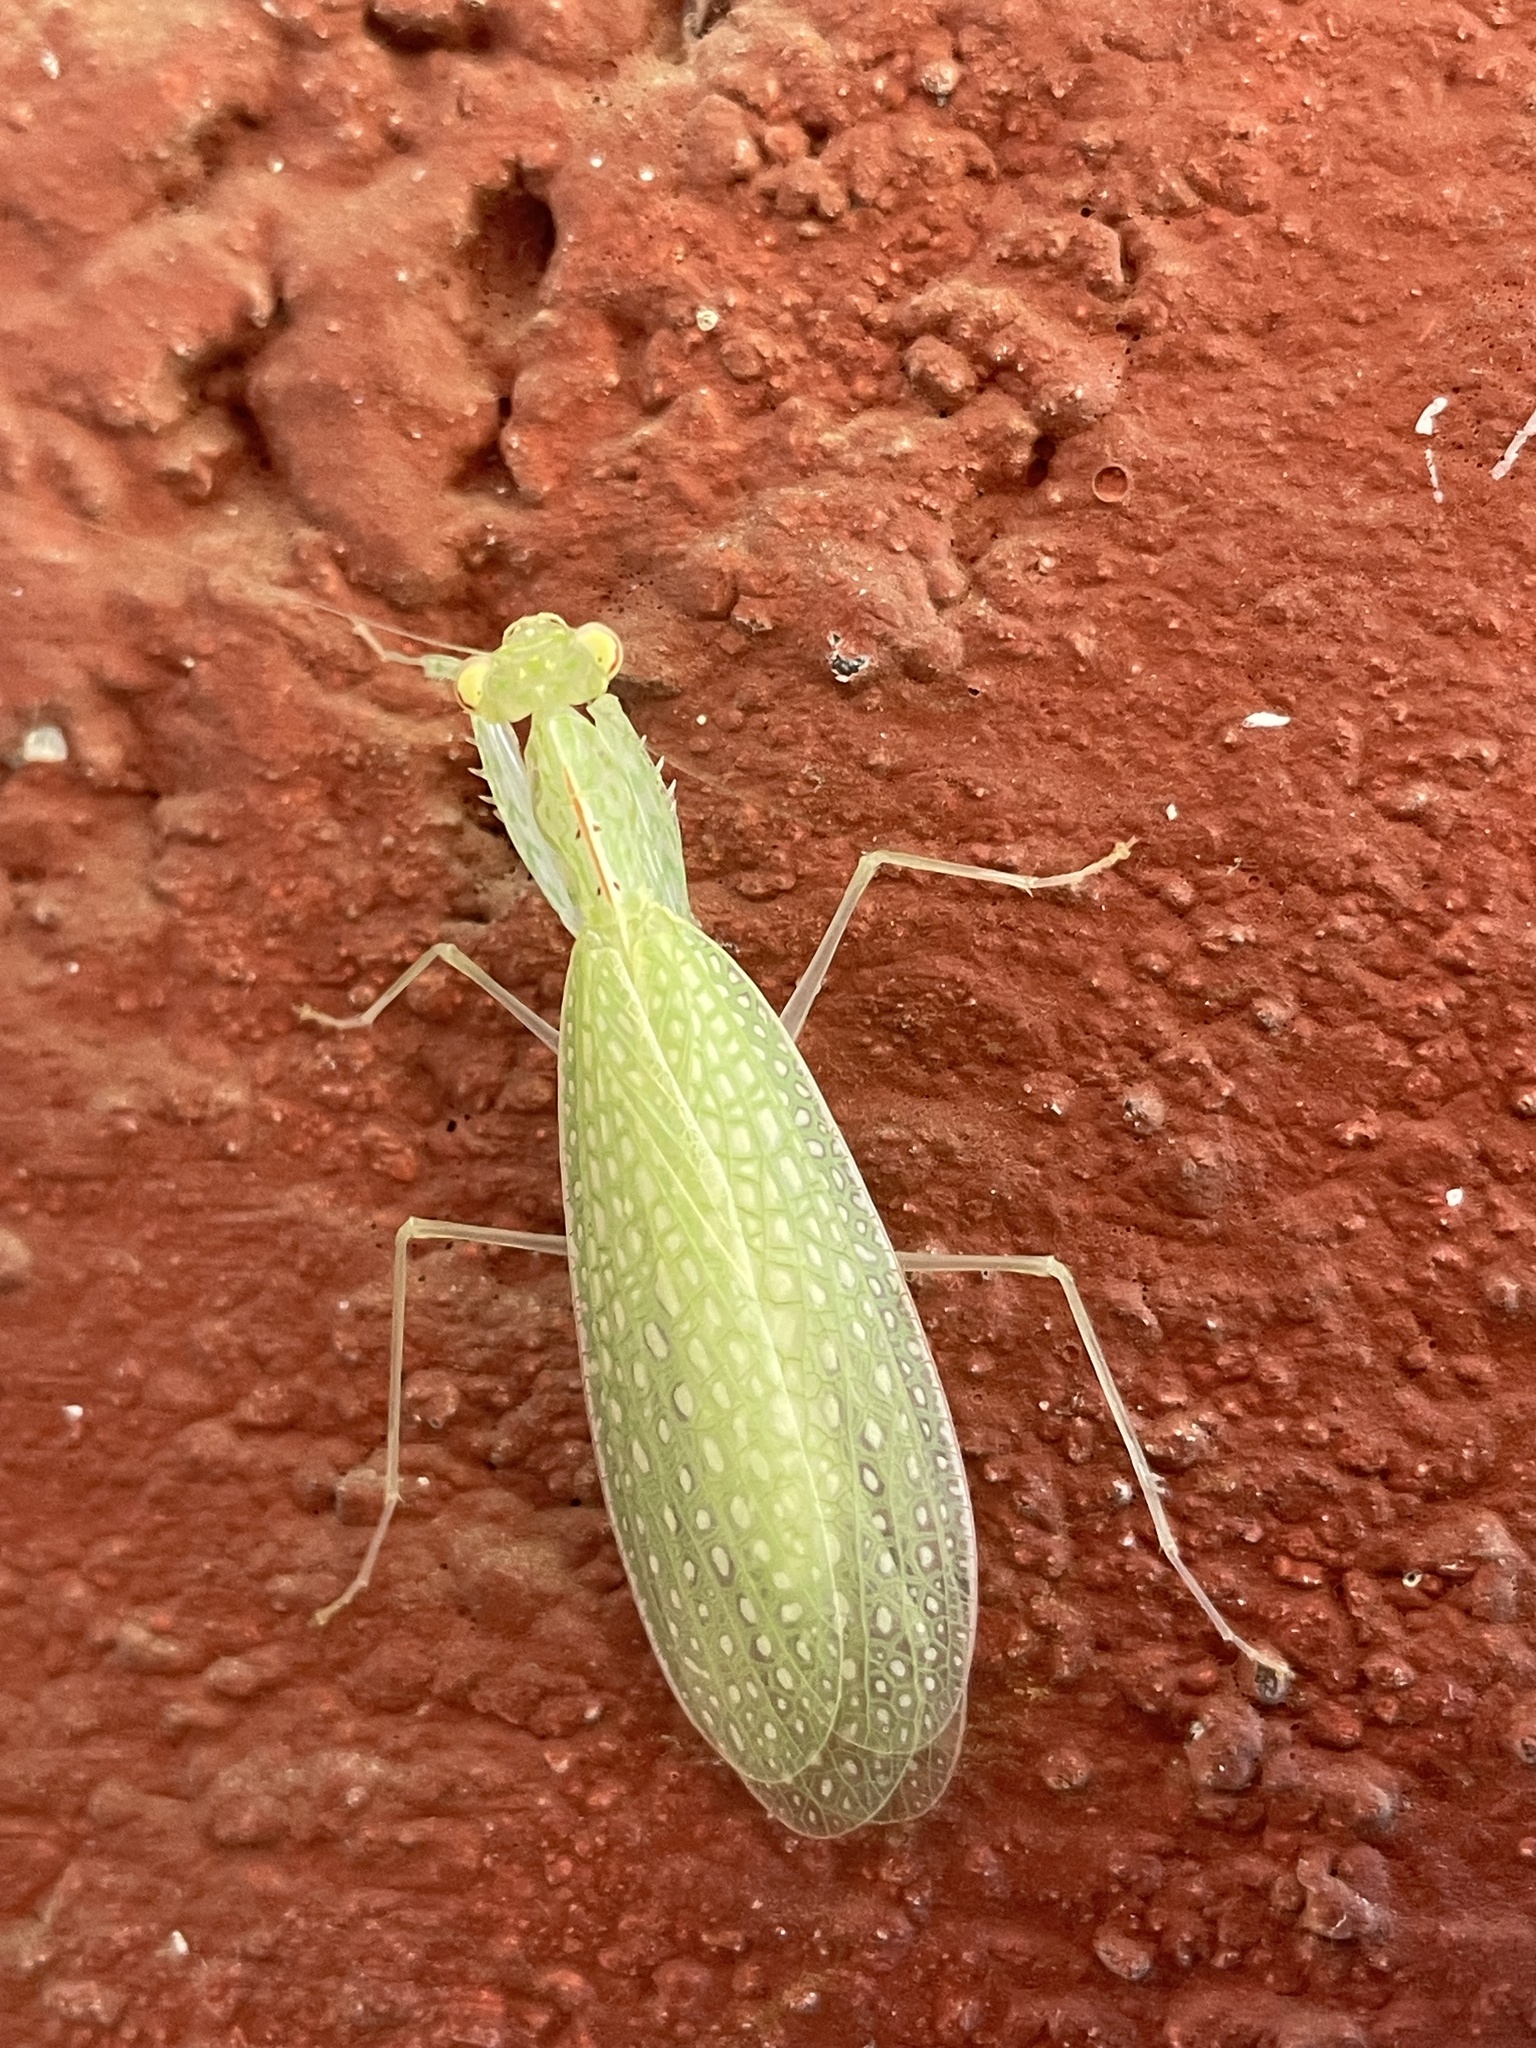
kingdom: Animalia
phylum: Arthropoda
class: Insecta
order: Mantodea
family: Nanomantidae
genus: Eomantis
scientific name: Eomantis guttatipennis
